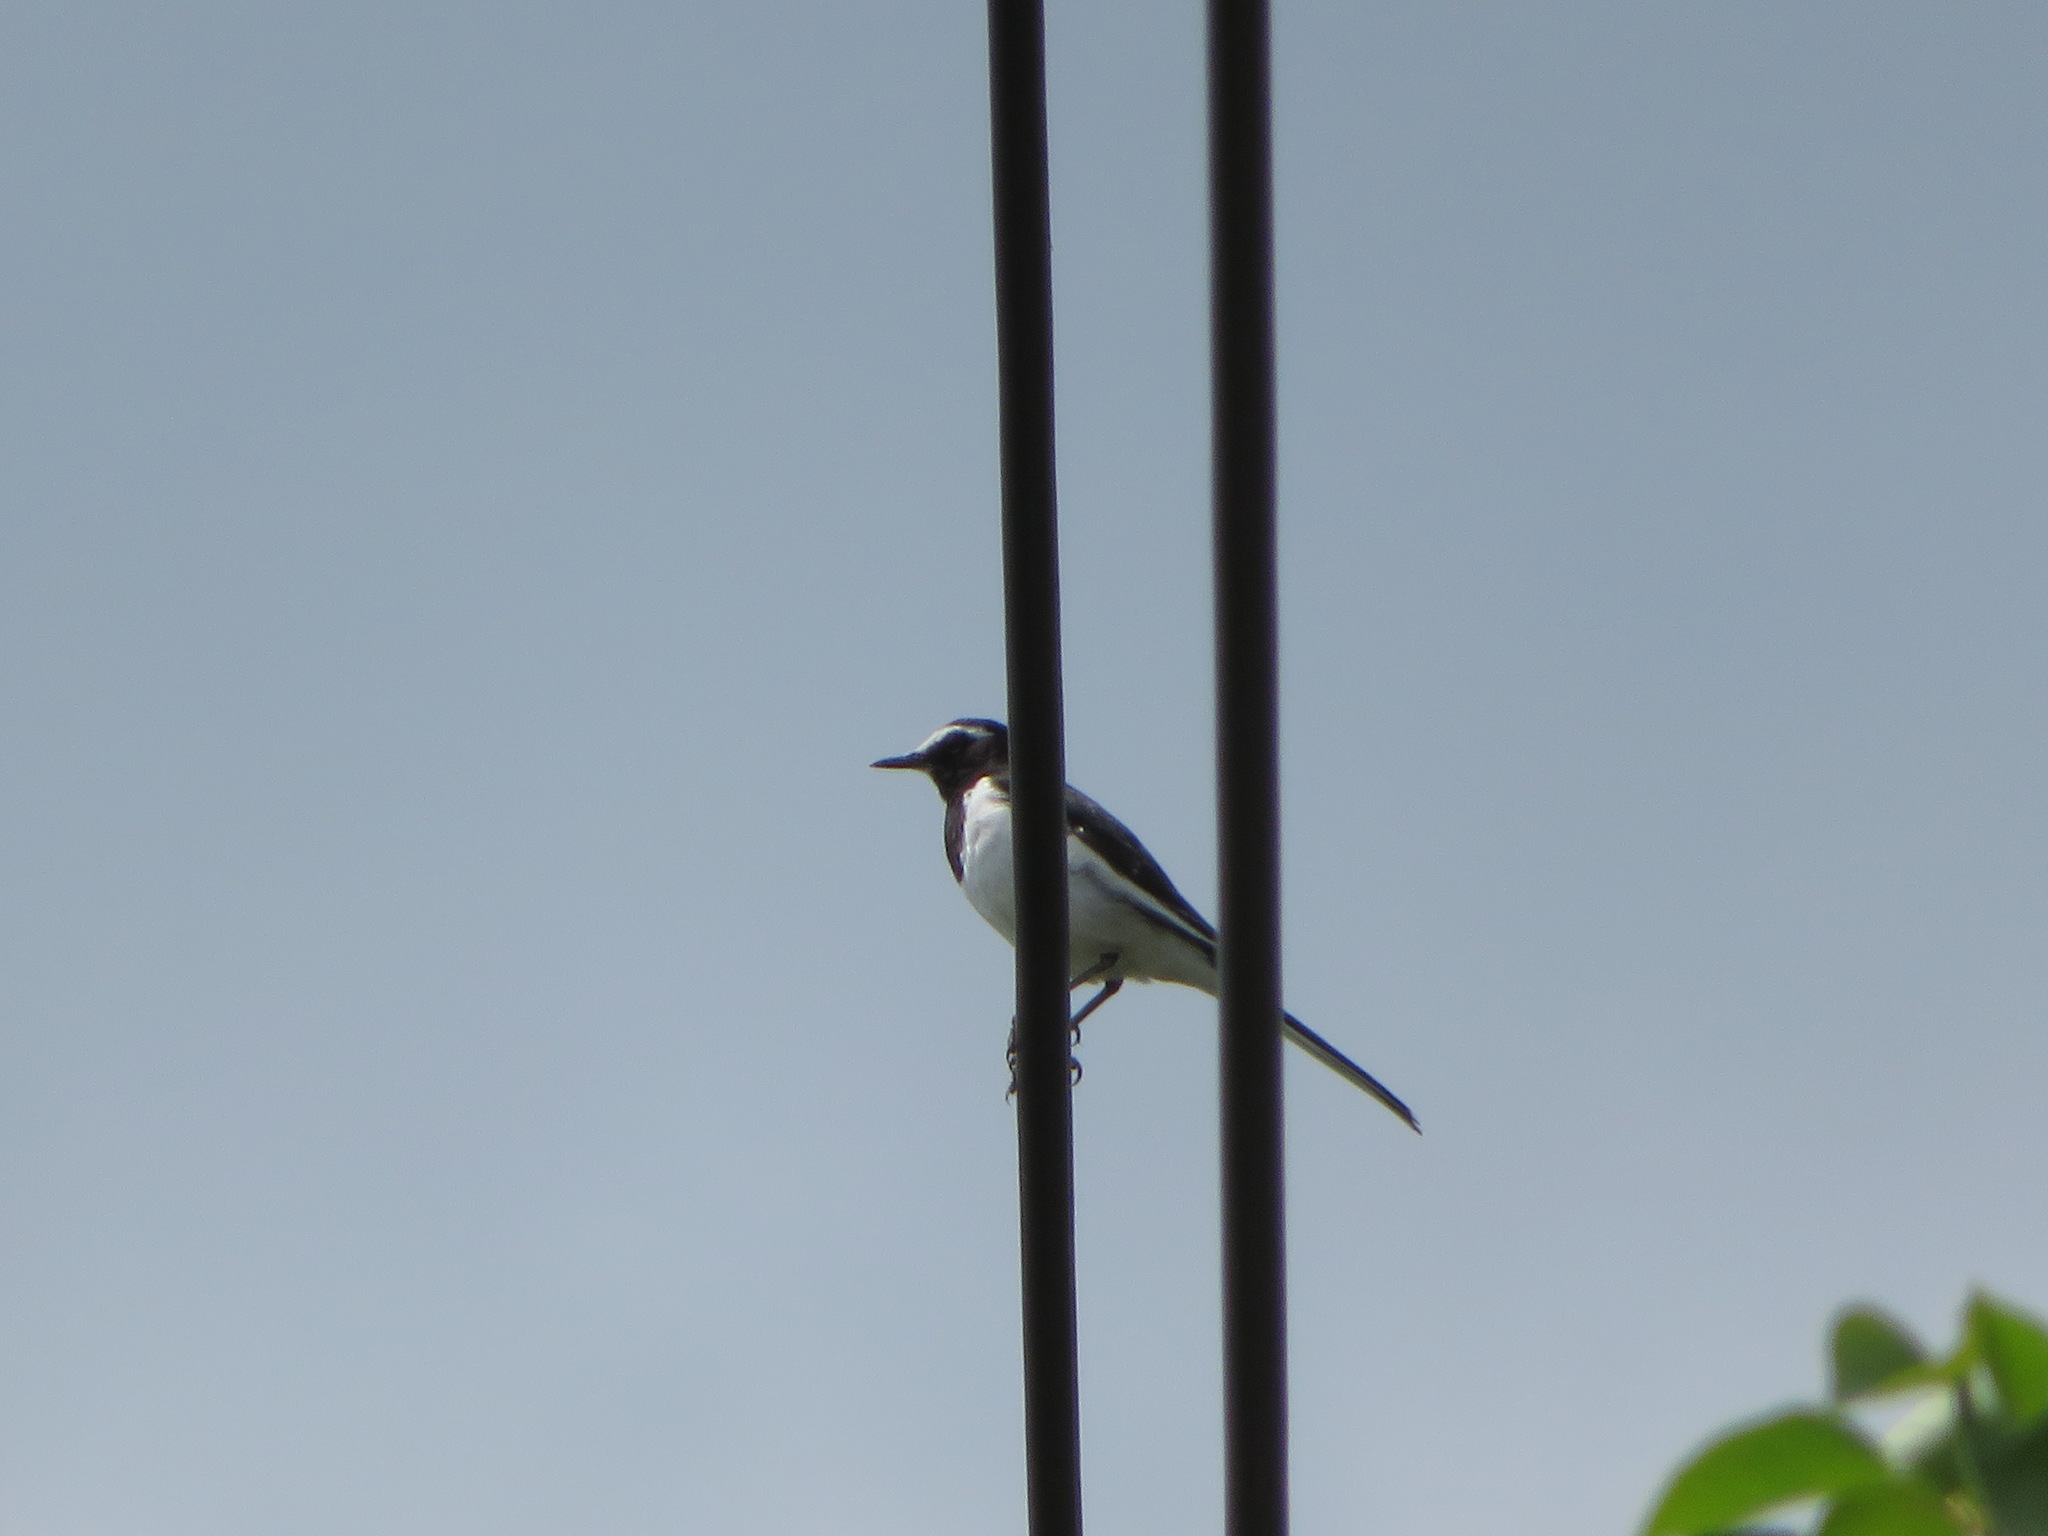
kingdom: Animalia
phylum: Chordata
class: Aves
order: Passeriformes
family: Motacillidae
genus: Motacilla
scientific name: Motacilla grandis
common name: Japanese wagtail
